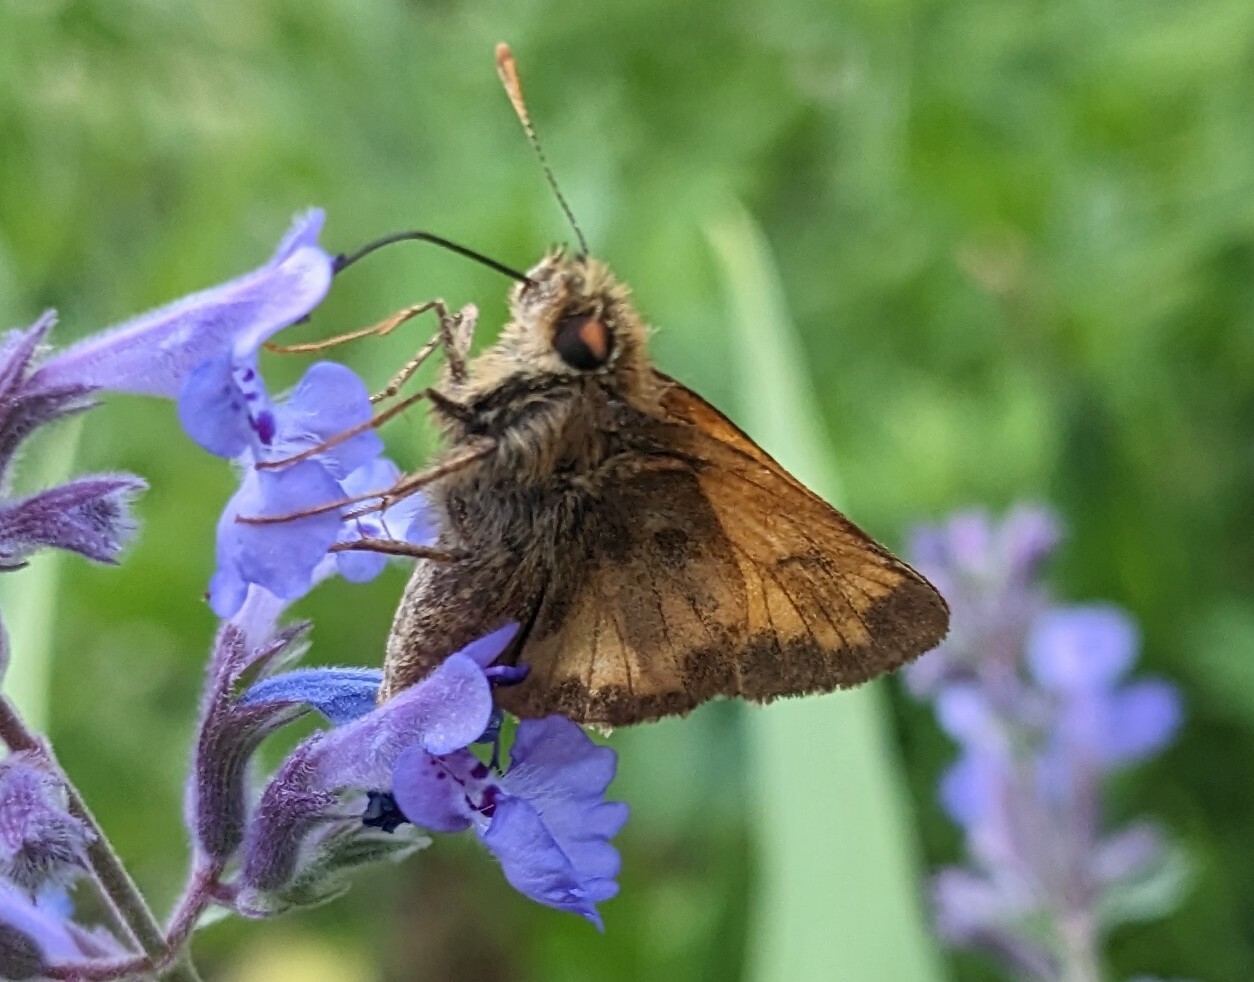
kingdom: Animalia
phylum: Arthropoda
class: Insecta
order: Lepidoptera
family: Hesperiidae
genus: Lon
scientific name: Lon hobomok
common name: Hobomok skipper
